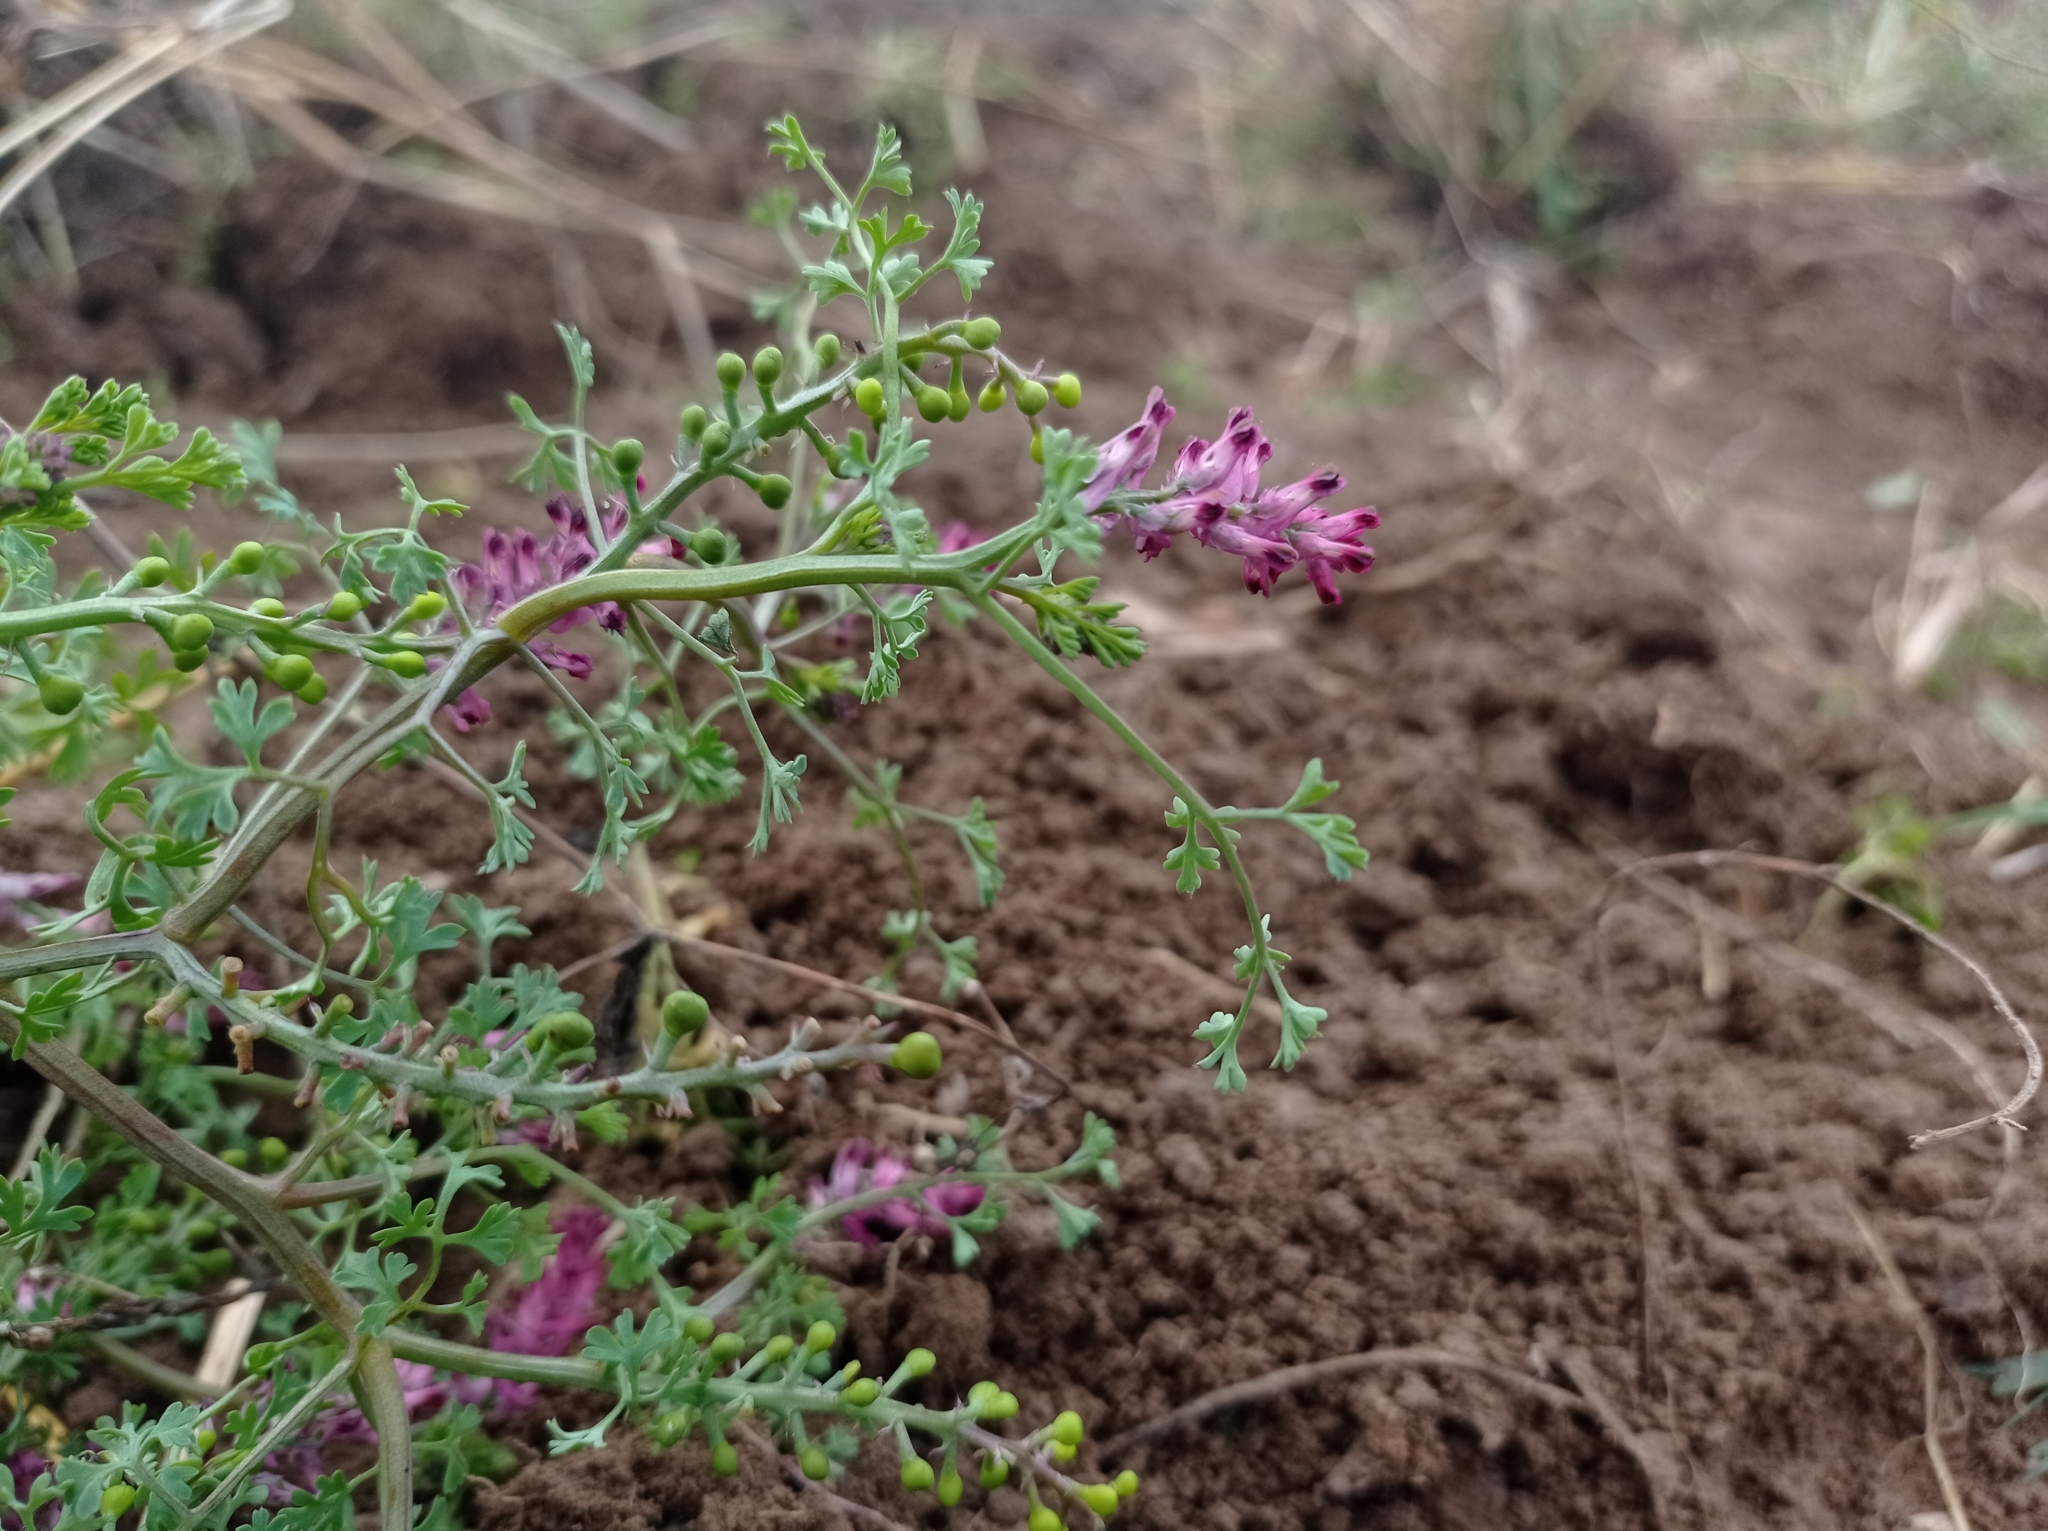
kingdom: Plantae
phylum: Tracheophyta
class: Magnoliopsida
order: Ranunculales
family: Papaveraceae
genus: Fumaria
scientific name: Fumaria officinalis
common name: Common fumitory
